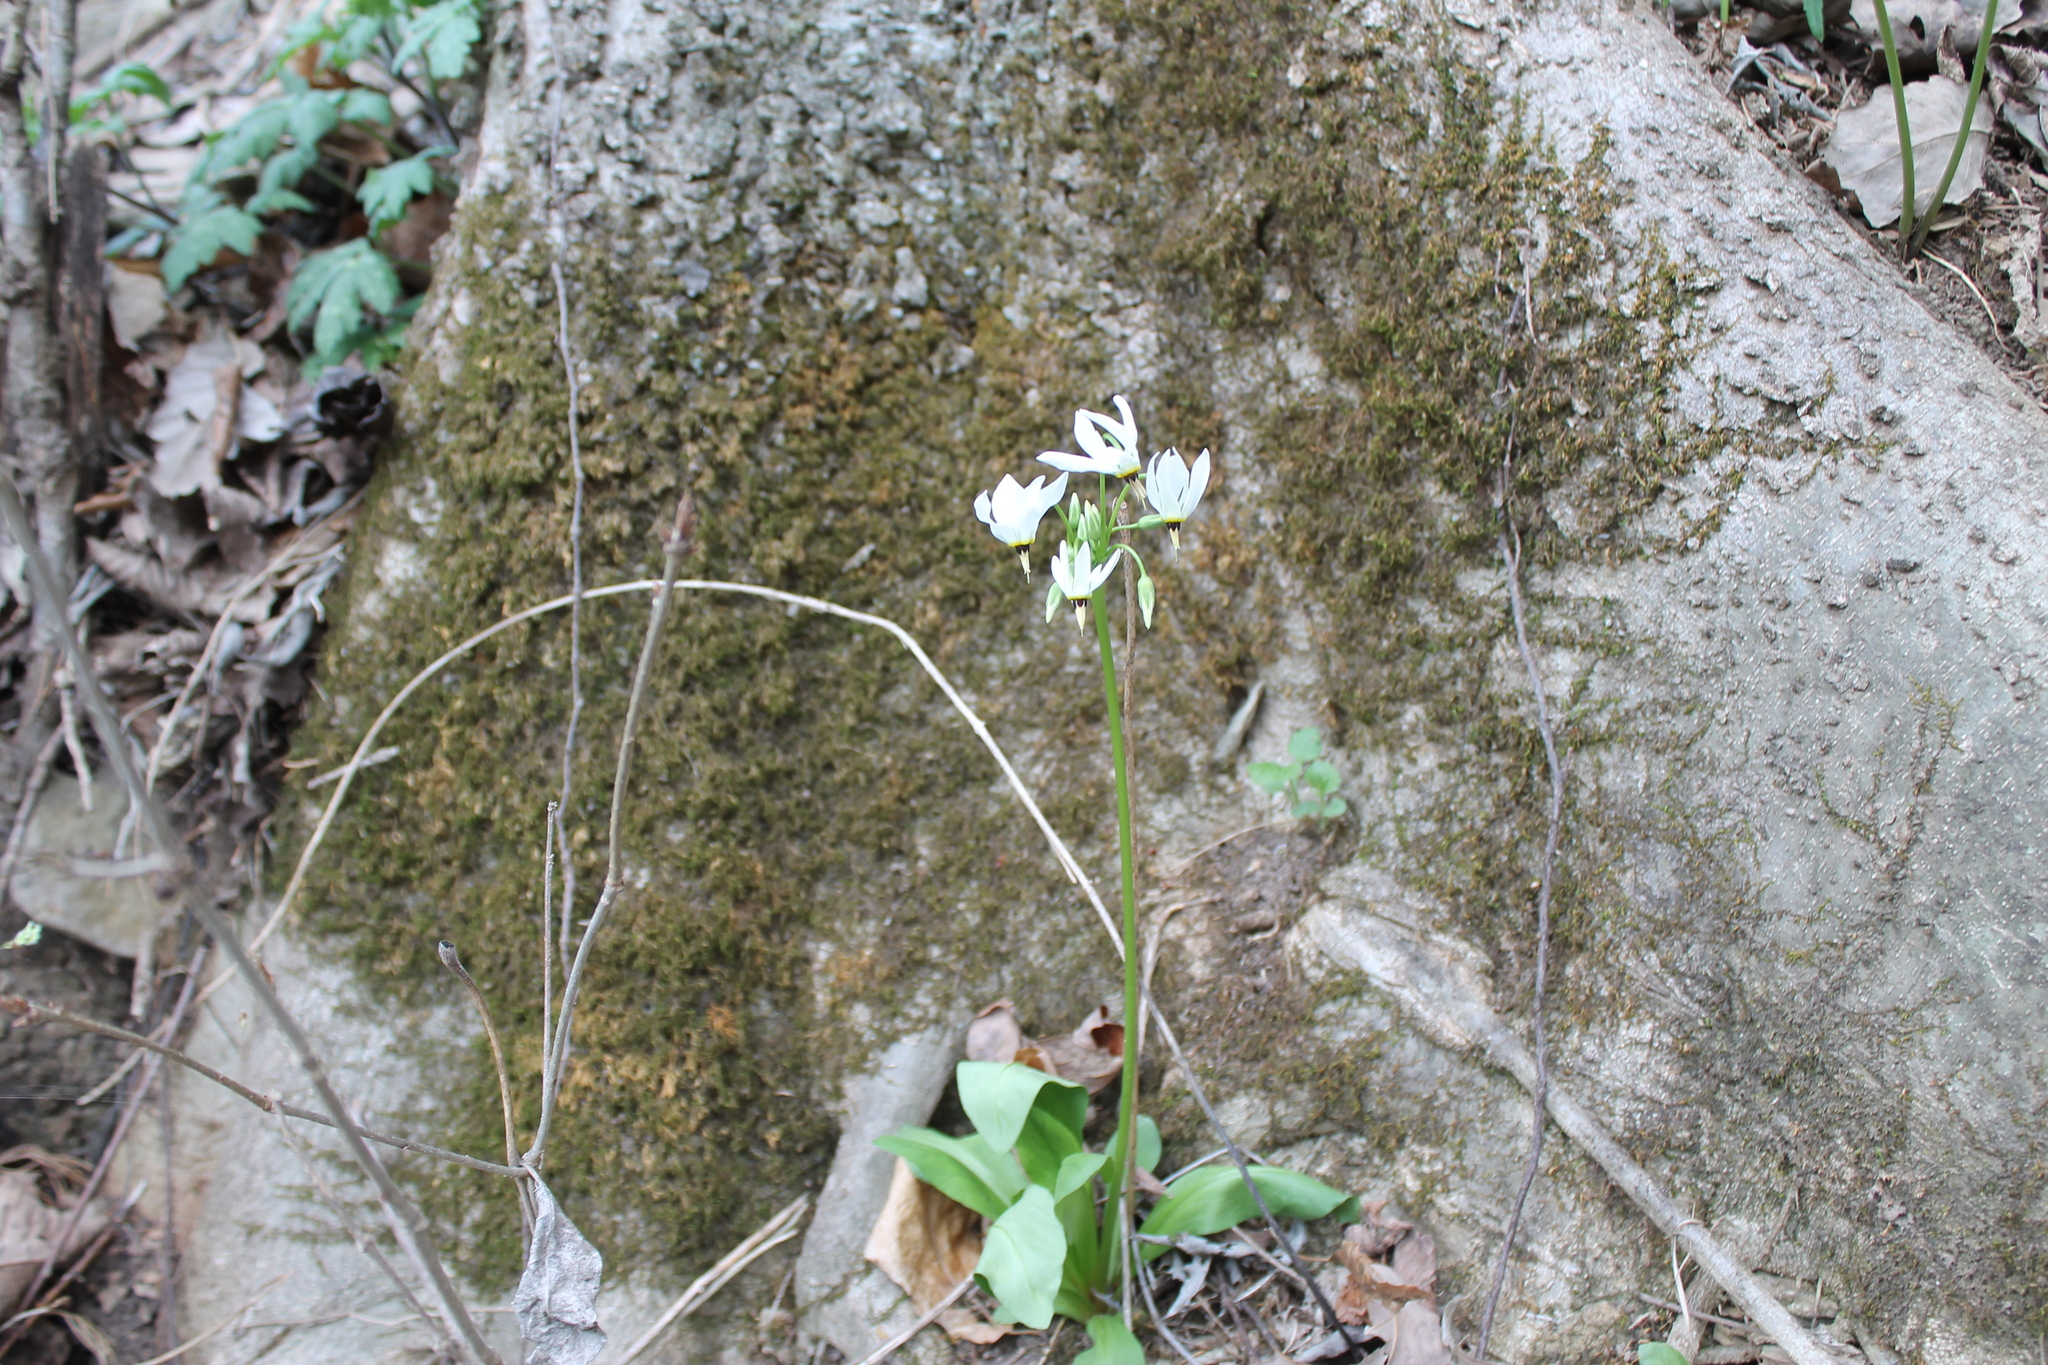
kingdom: Plantae
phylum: Tracheophyta
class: Magnoliopsida
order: Ericales
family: Primulaceae
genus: Dodecatheon
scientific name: Dodecatheon meadia
